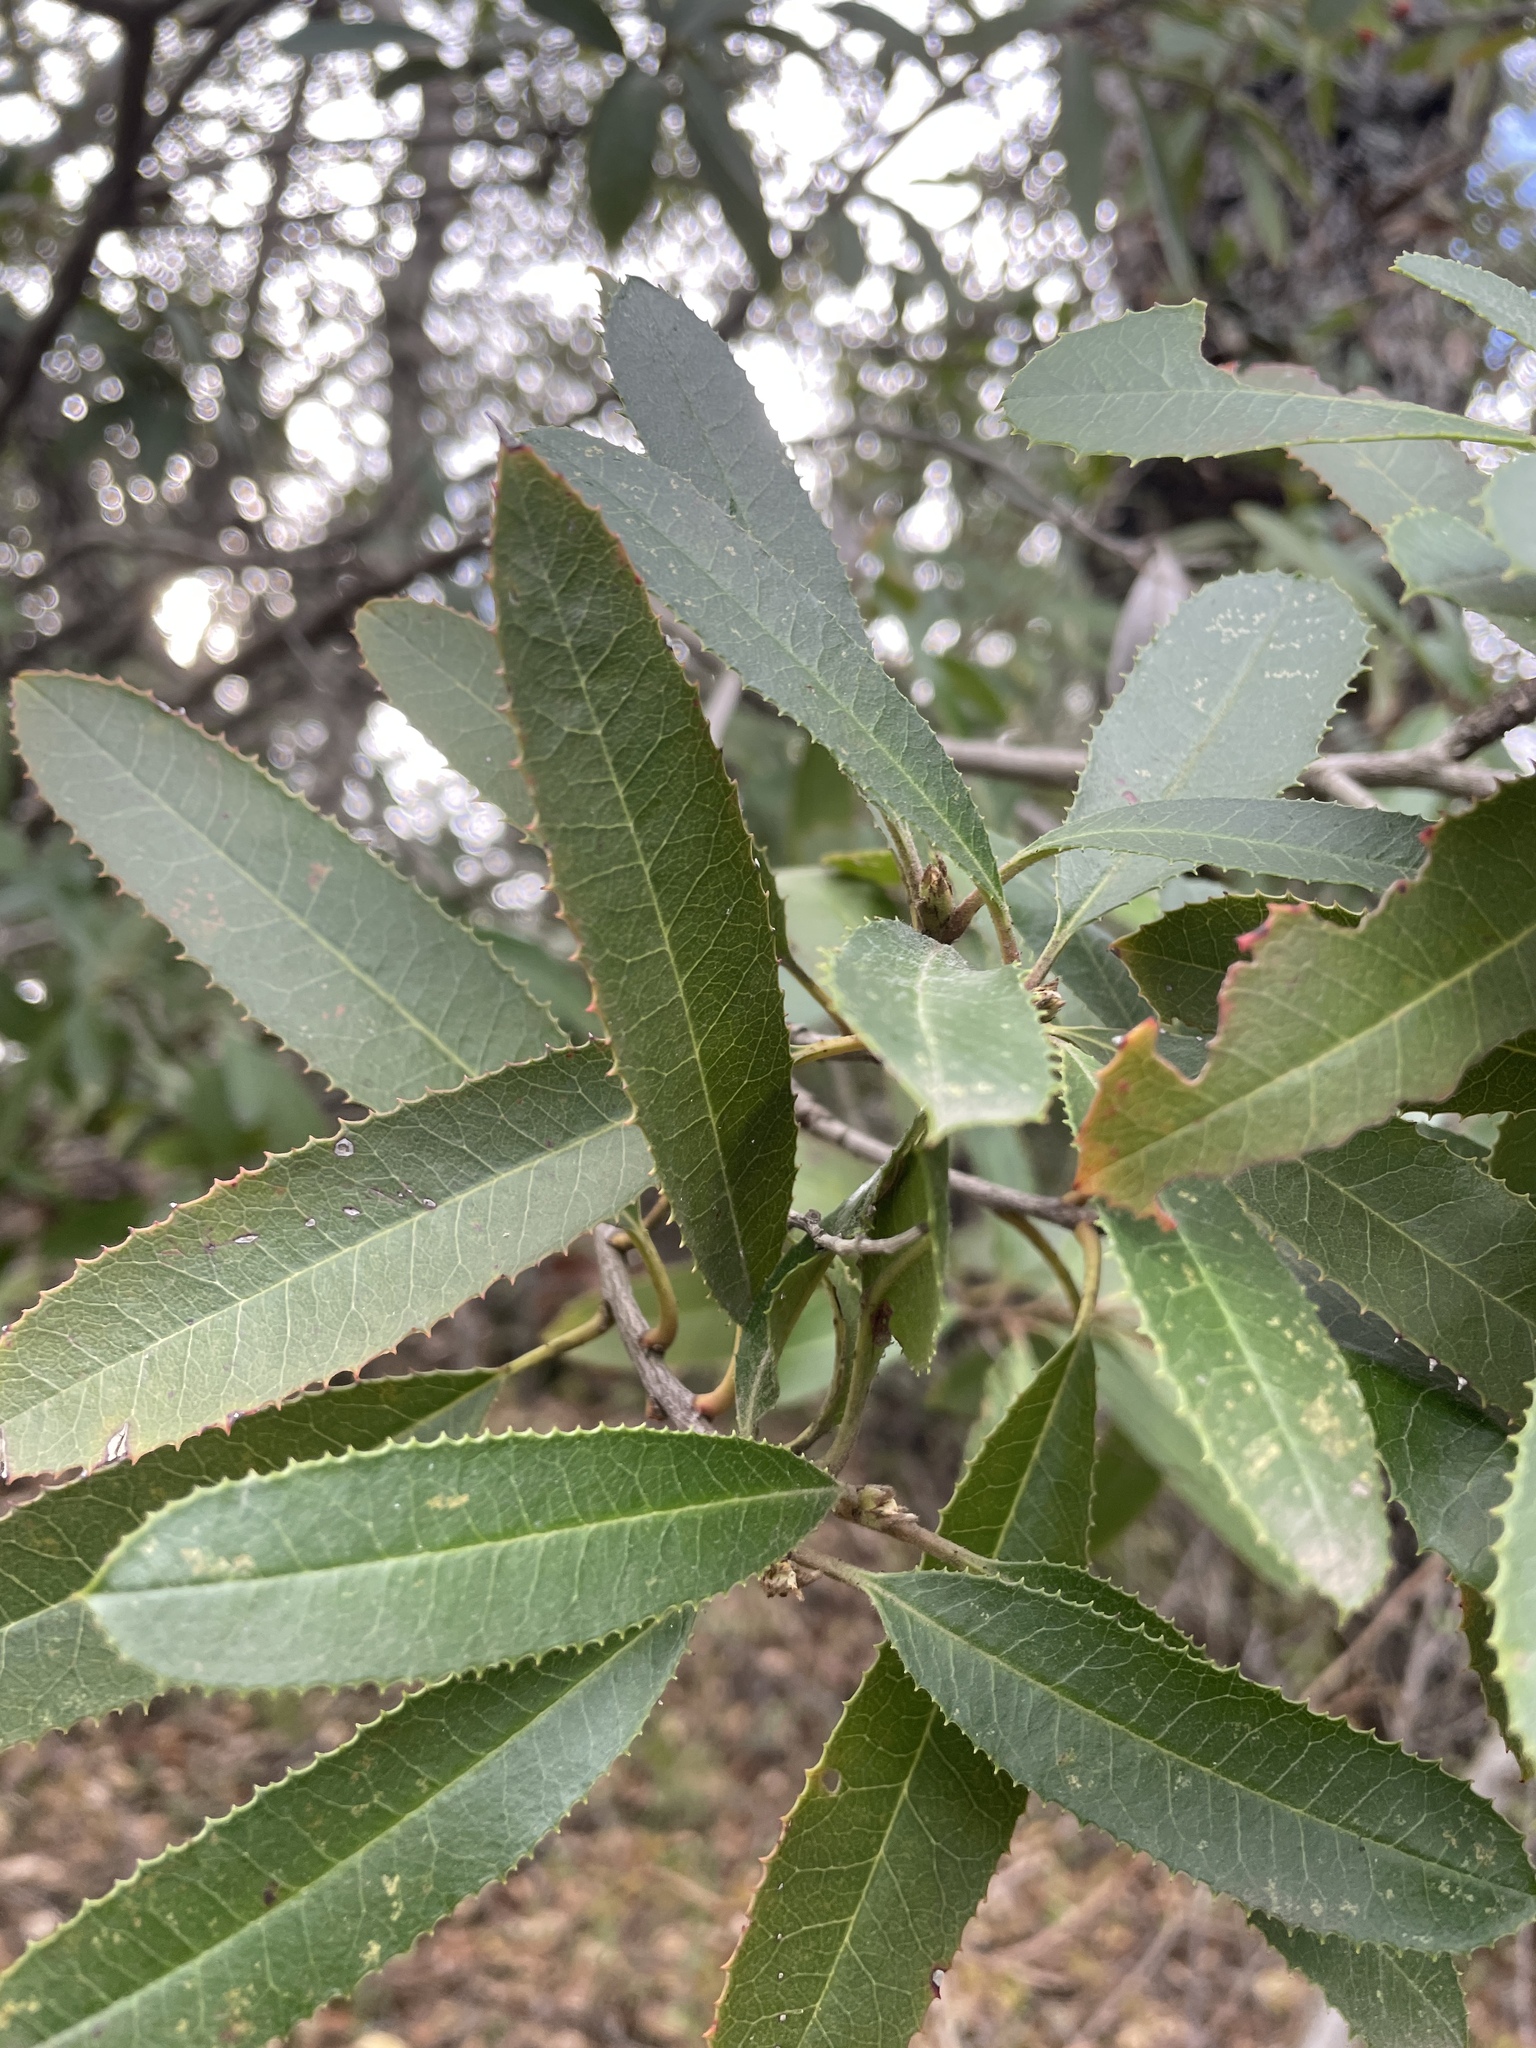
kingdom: Plantae
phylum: Tracheophyta
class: Magnoliopsida
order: Rosales
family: Rosaceae
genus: Heteromeles
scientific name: Heteromeles arbutifolia
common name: California-holly
